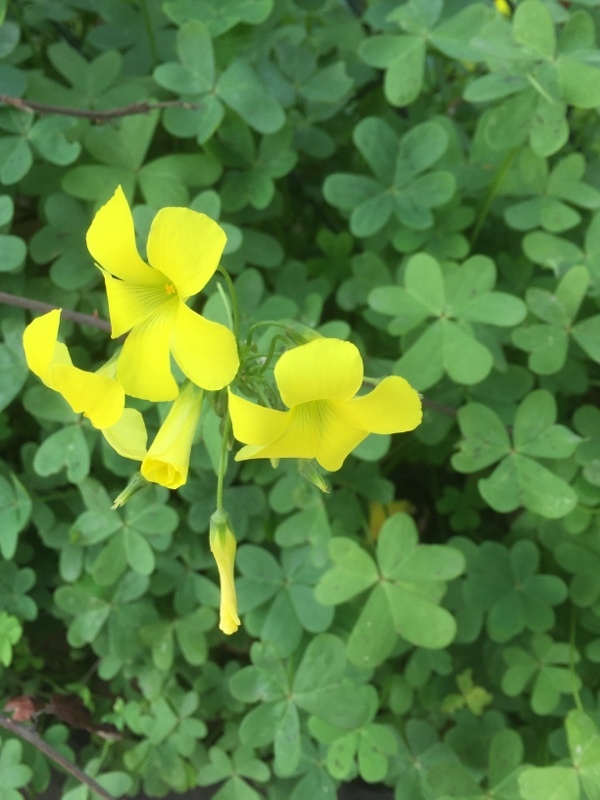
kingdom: Plantae
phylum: Tracheophyta
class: Magnoliopsida
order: Oxalidales
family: Oxalidaceae
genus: Oxalis
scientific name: Oxalis pes-caprae
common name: Bermuda-buttercup
